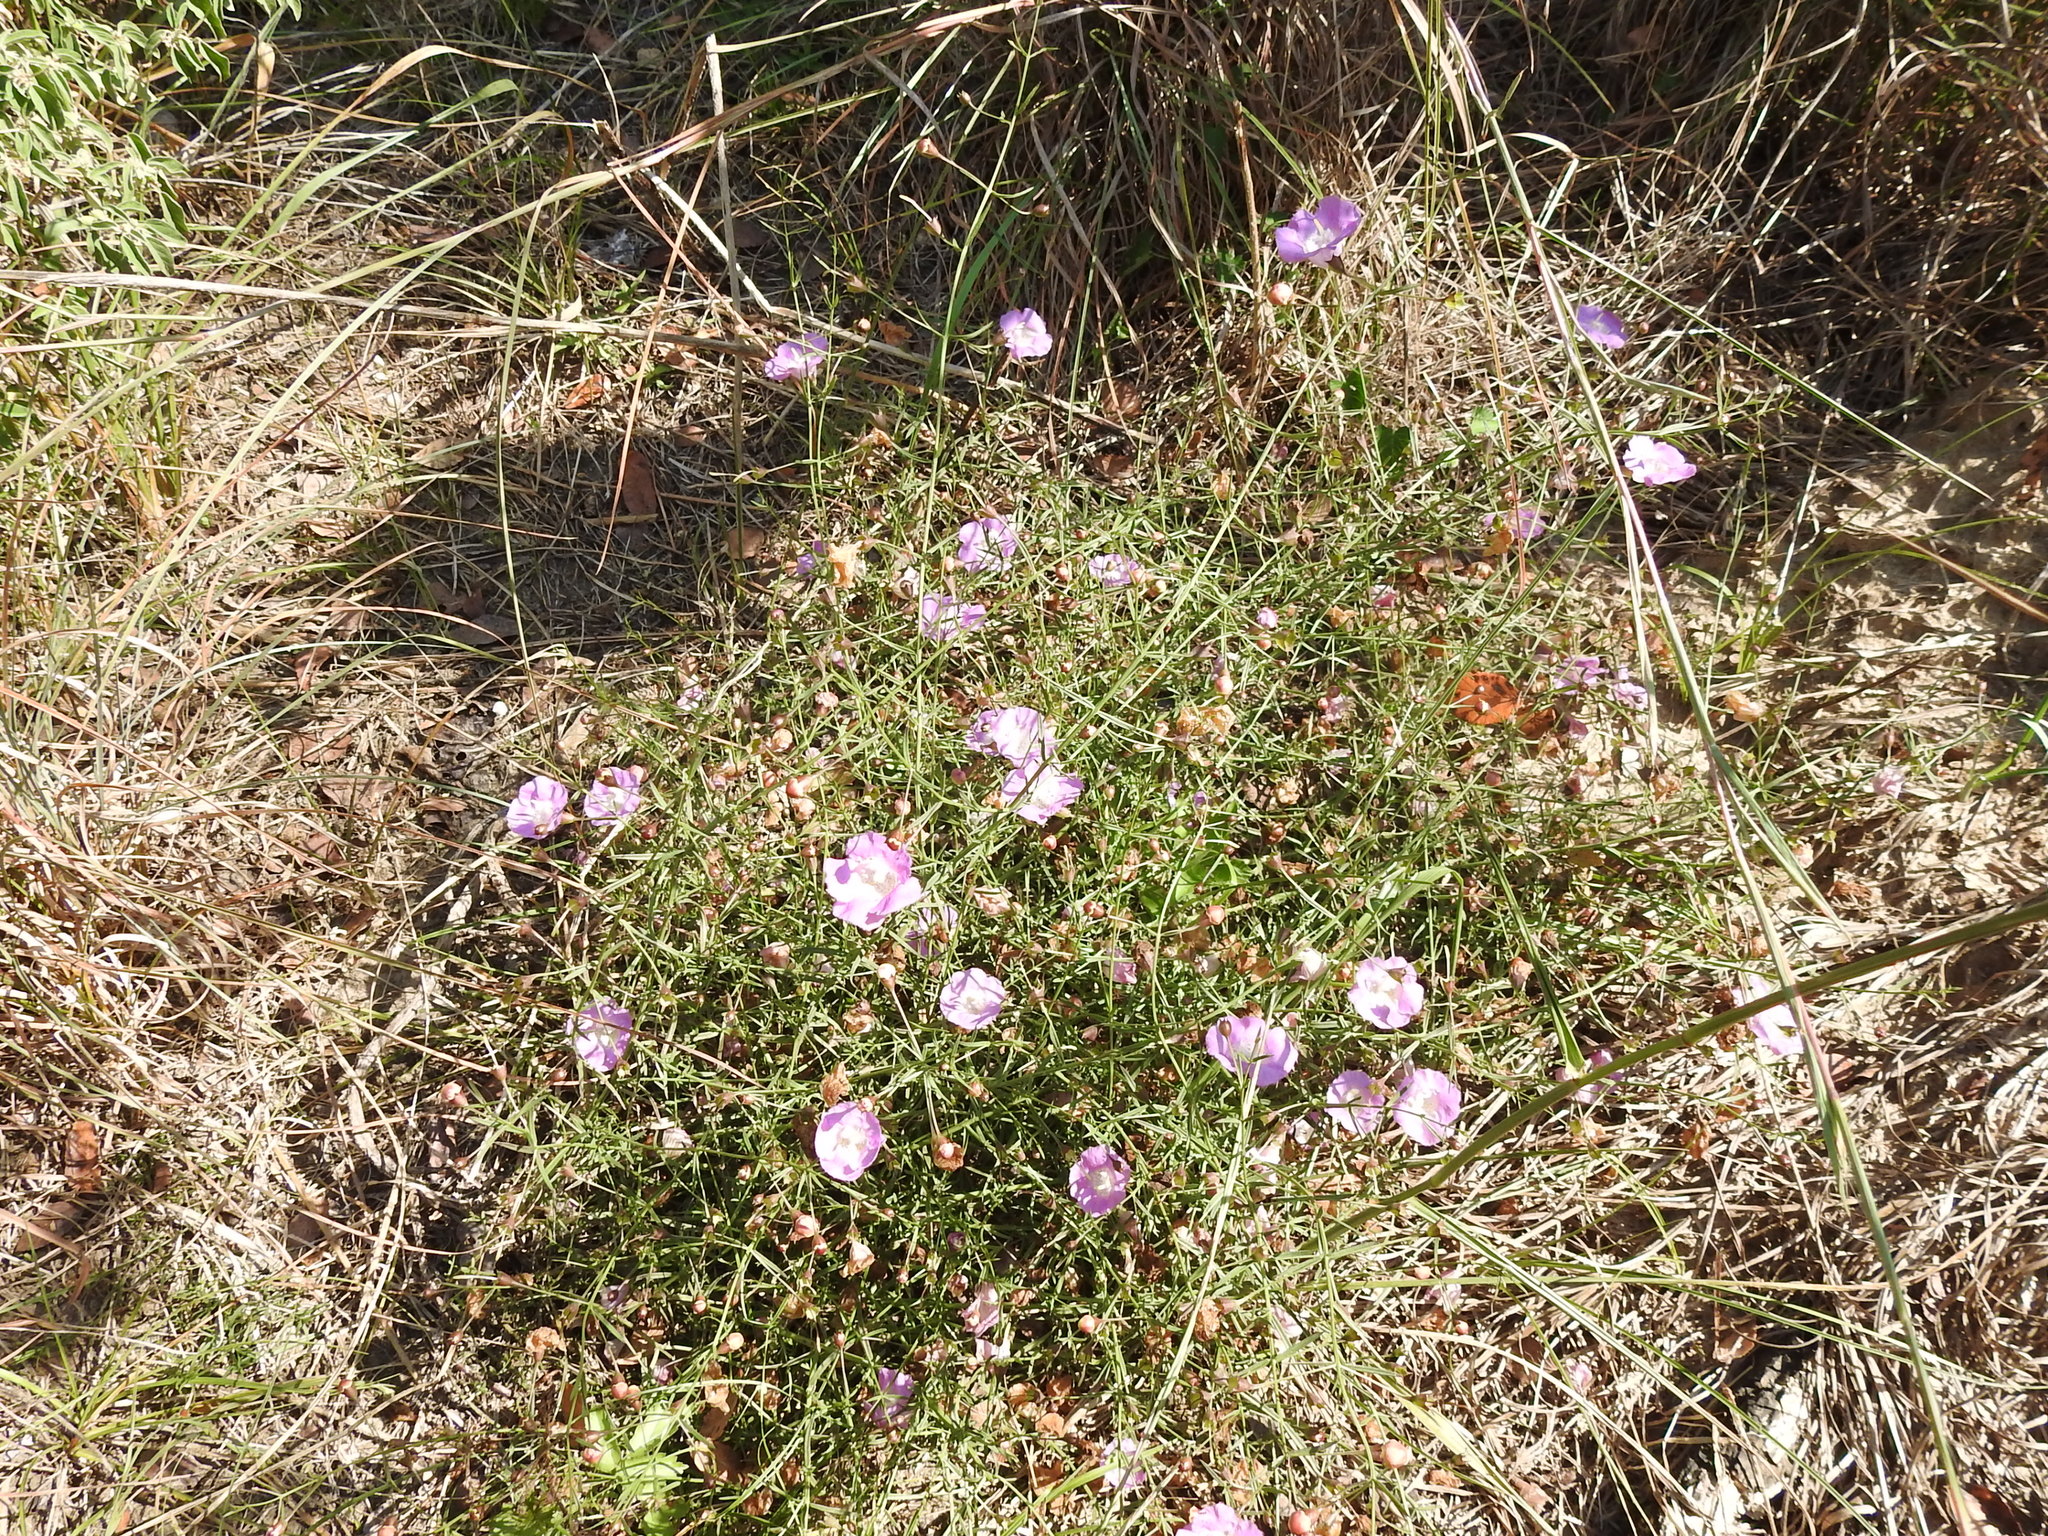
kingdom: Plantae
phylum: Tracheophyta
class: Magnoliopsida
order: Lamiales
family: Orobanchaceae
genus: Agalinis
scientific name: Agalinis strictifolia
